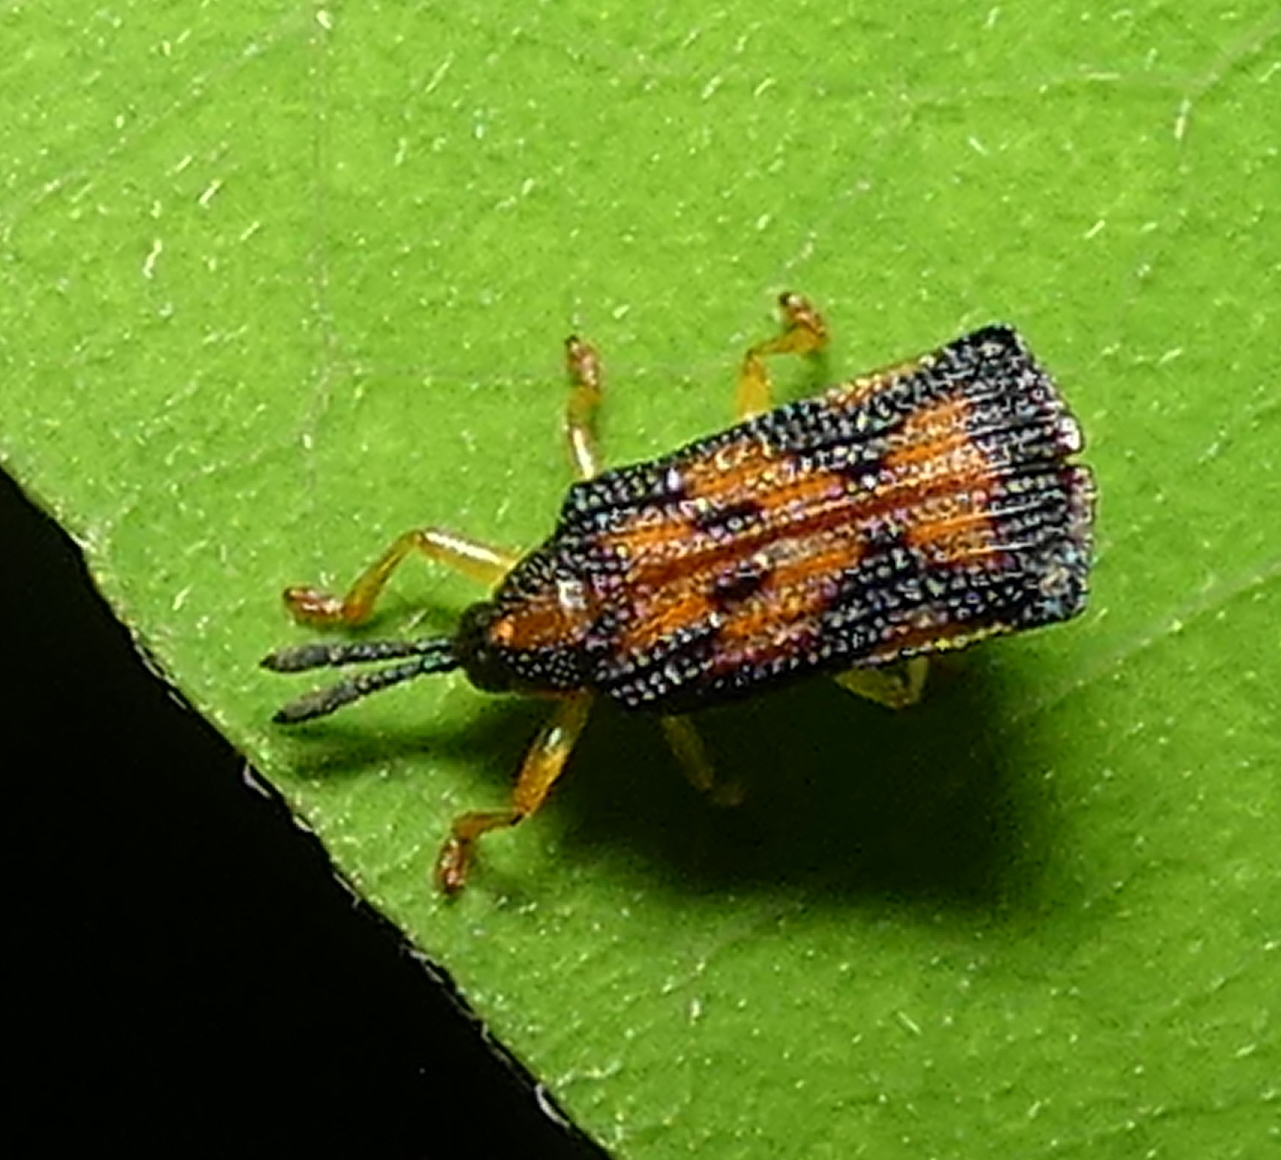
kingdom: Animalia
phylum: Arthropoda
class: Insecta
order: Coleoptera
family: Chrysomelidae
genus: Uroplata
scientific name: Uroplata sublimbata
